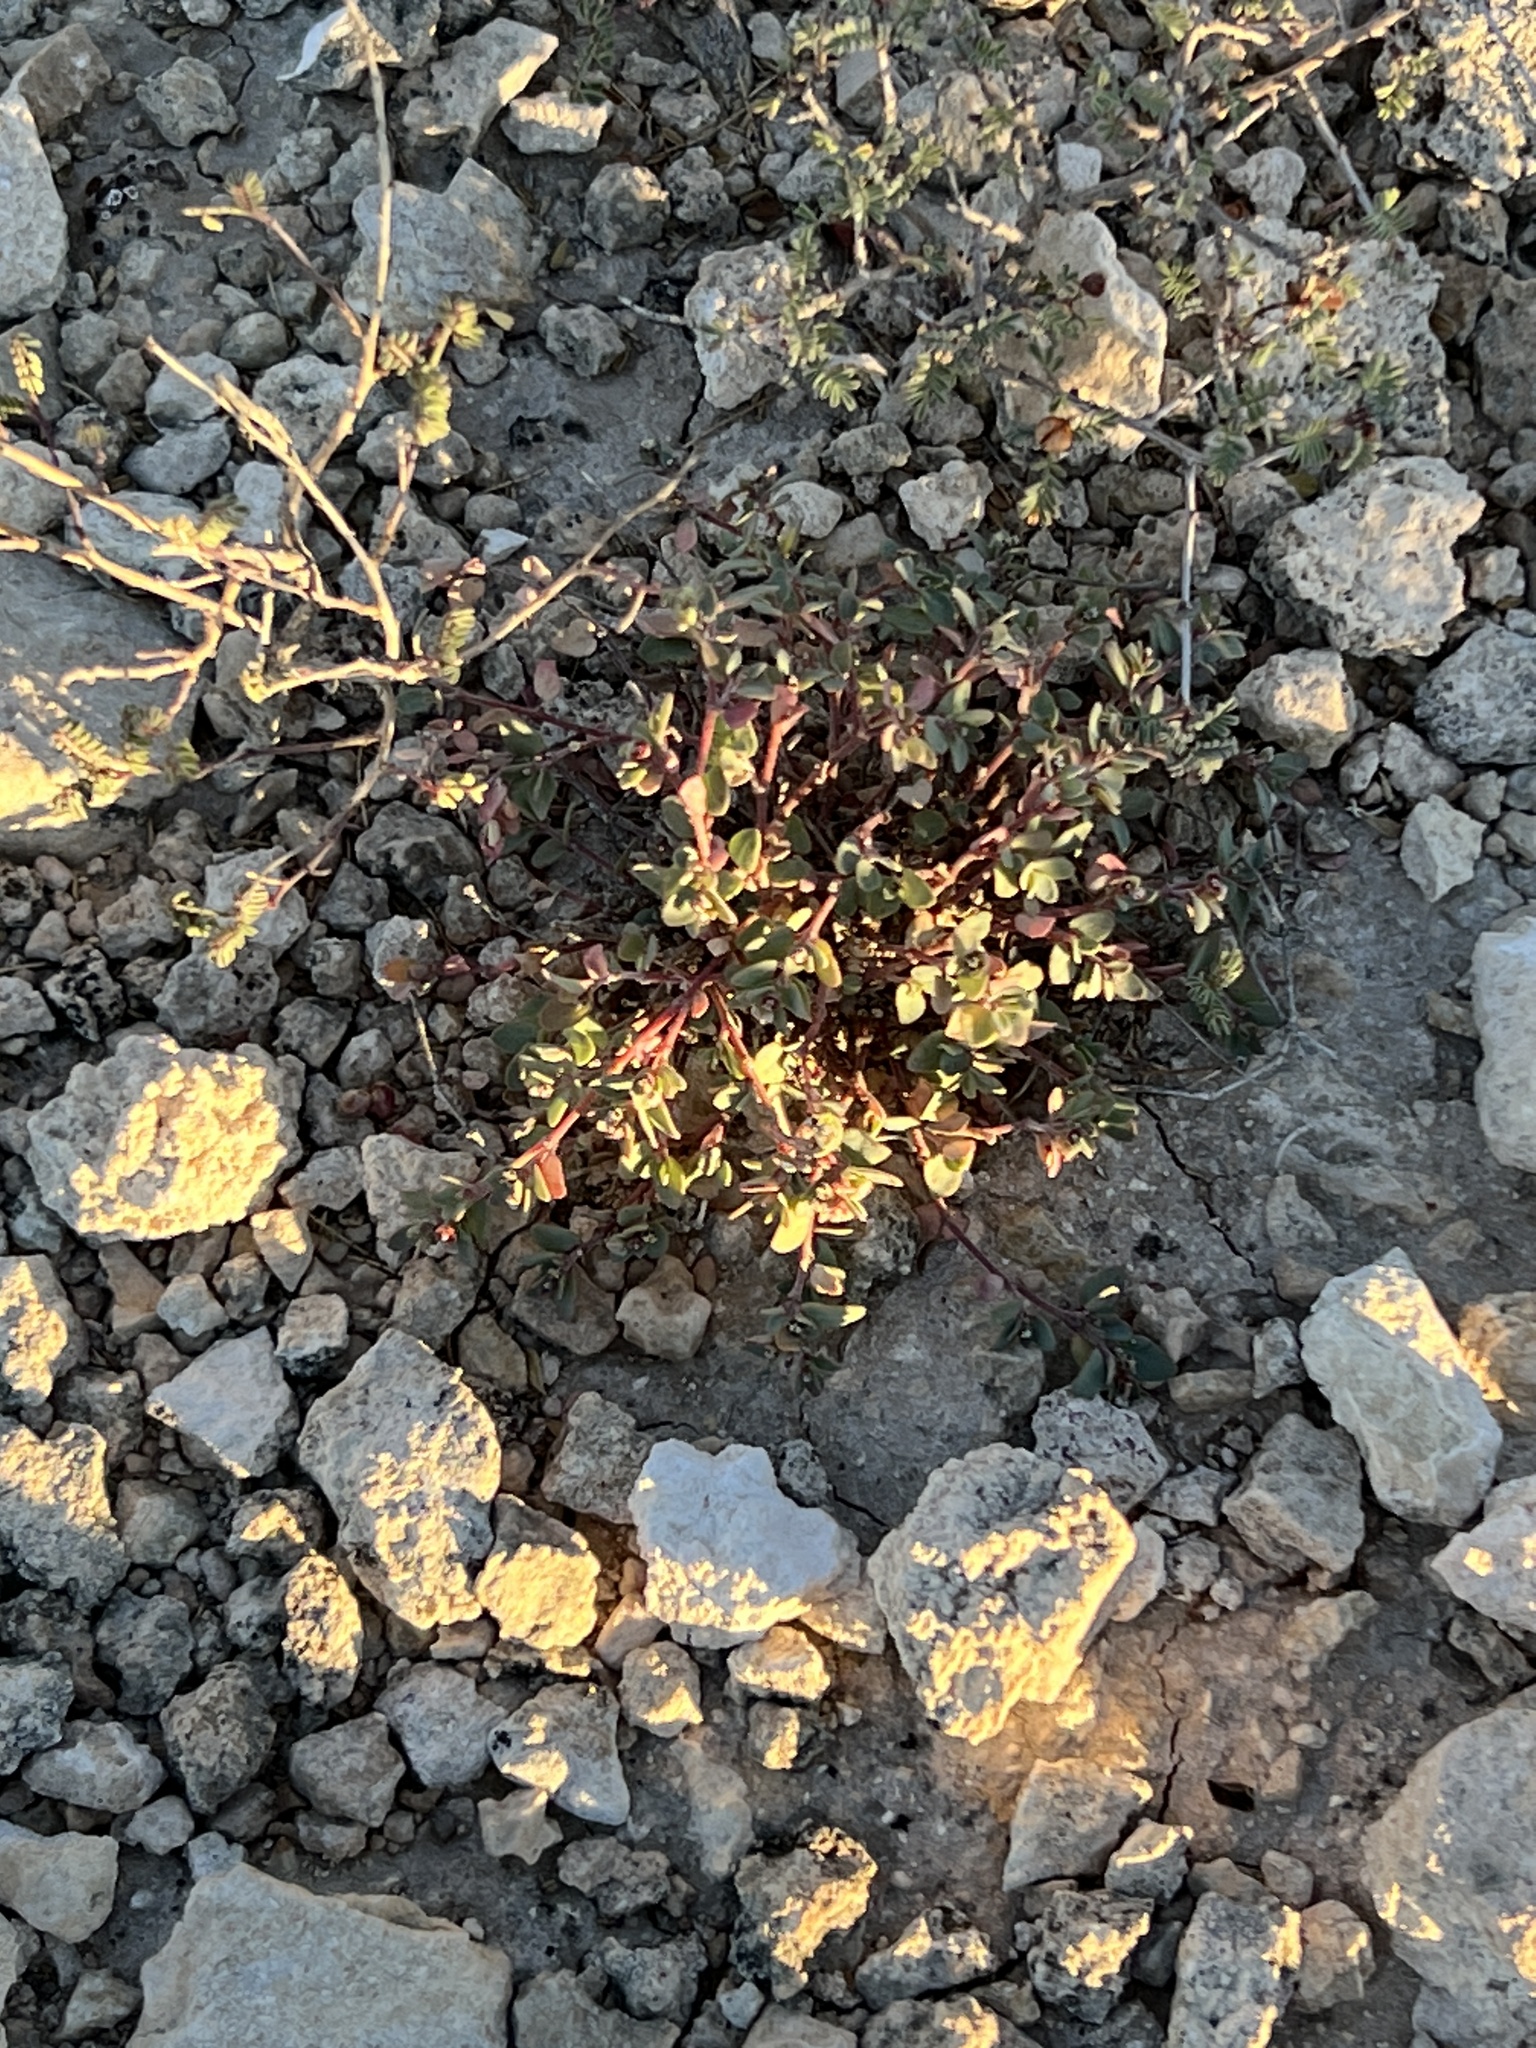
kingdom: Plantae
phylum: Tracheophyta
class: Magnoliopsida
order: Malpighiales
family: Euphorbiaceae
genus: Euphorbia
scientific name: Euphorbia cinerascens
